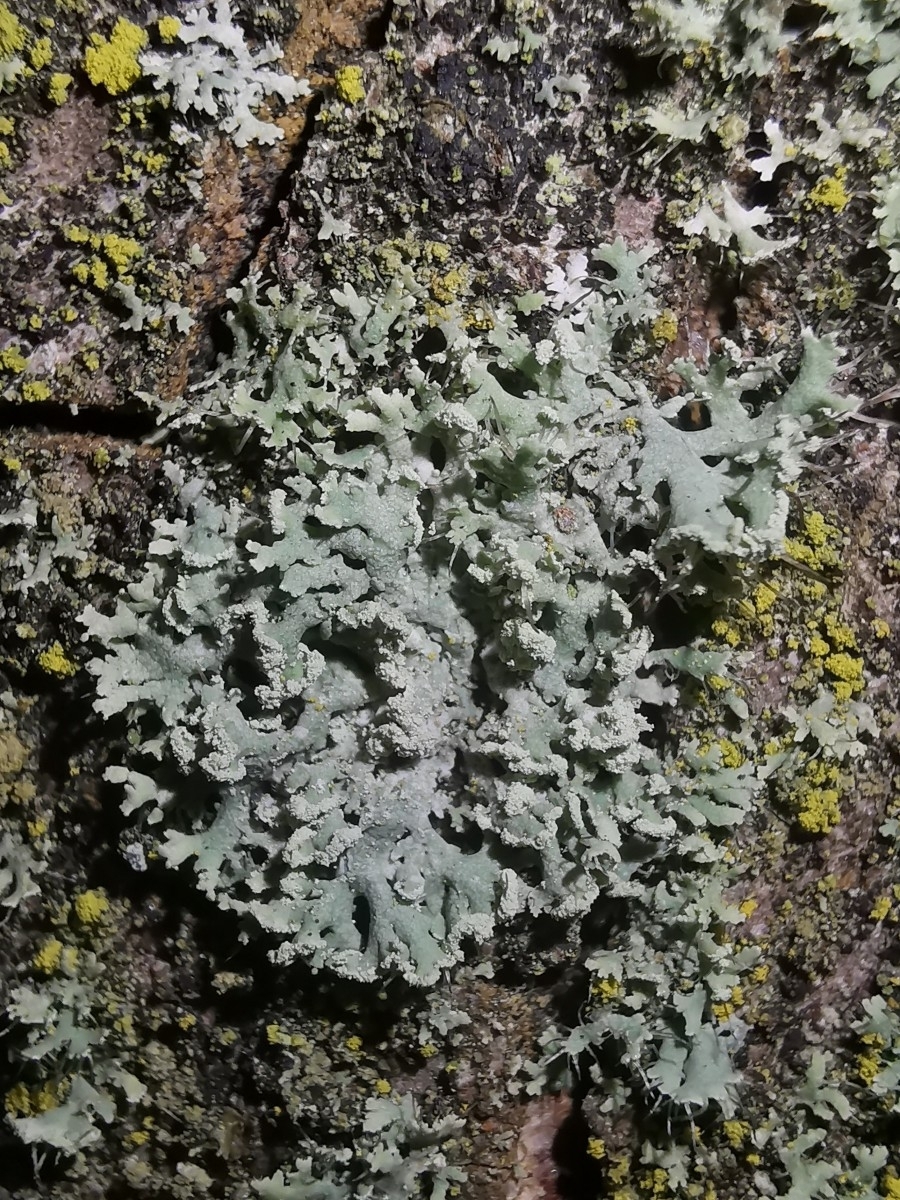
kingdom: Fungi
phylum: Ascomycota
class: Lecanoromycetes
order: Caliciales
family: Physciaceae
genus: Physcia
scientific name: Physcia tenella
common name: Fringed rosette lichen
